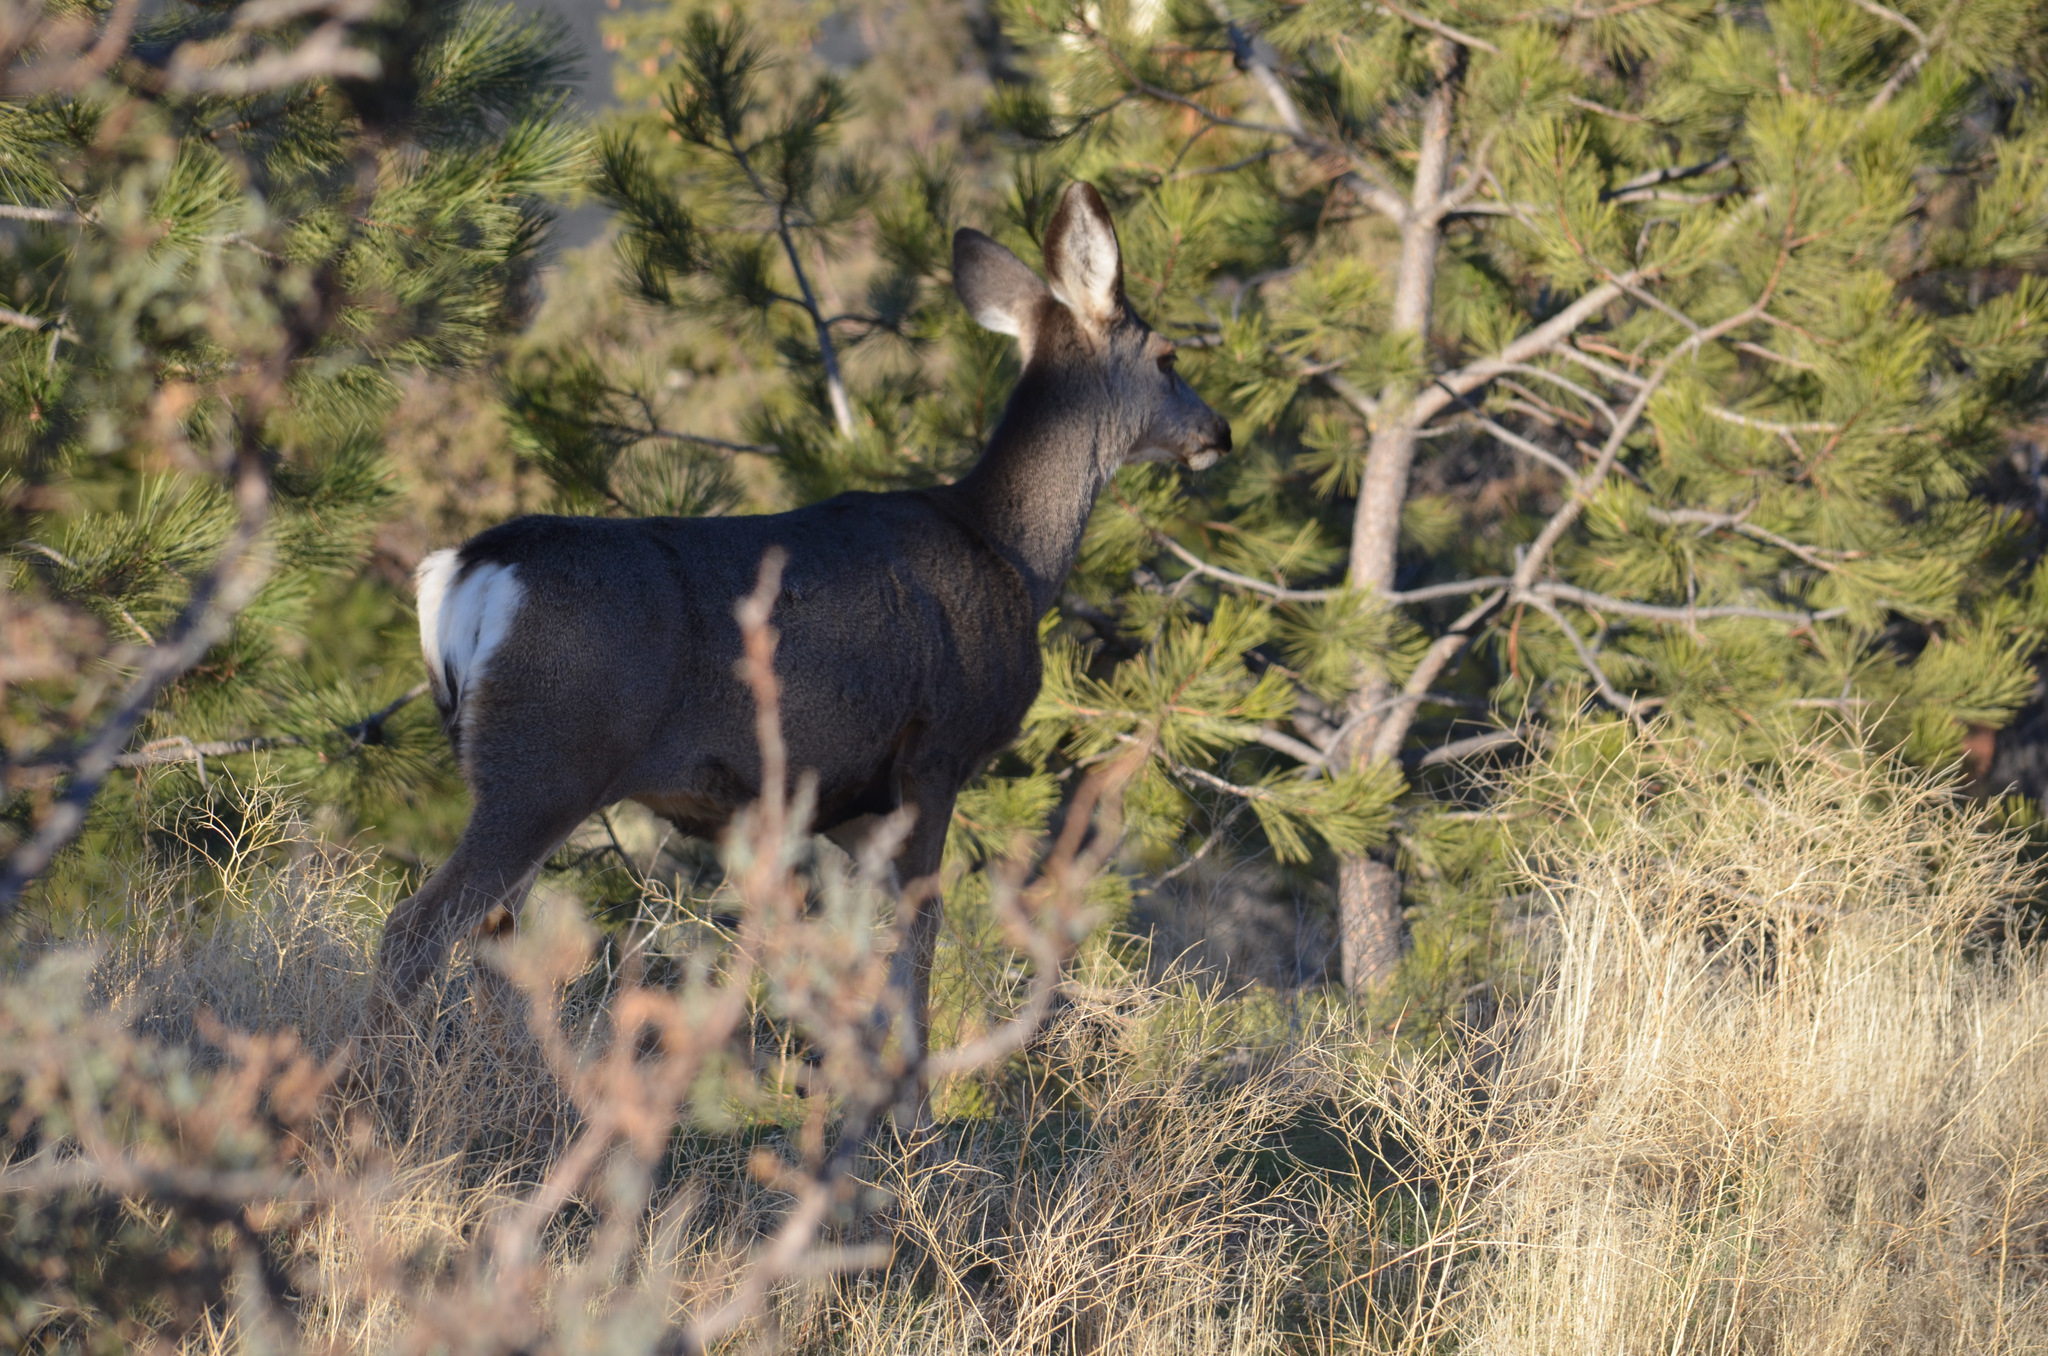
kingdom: Animalia
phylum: Chordata
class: Mammalia
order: Artiodactyla
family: Cervidae
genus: Odocoileus
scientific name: Odocoileus hemionus
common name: Mule deer
